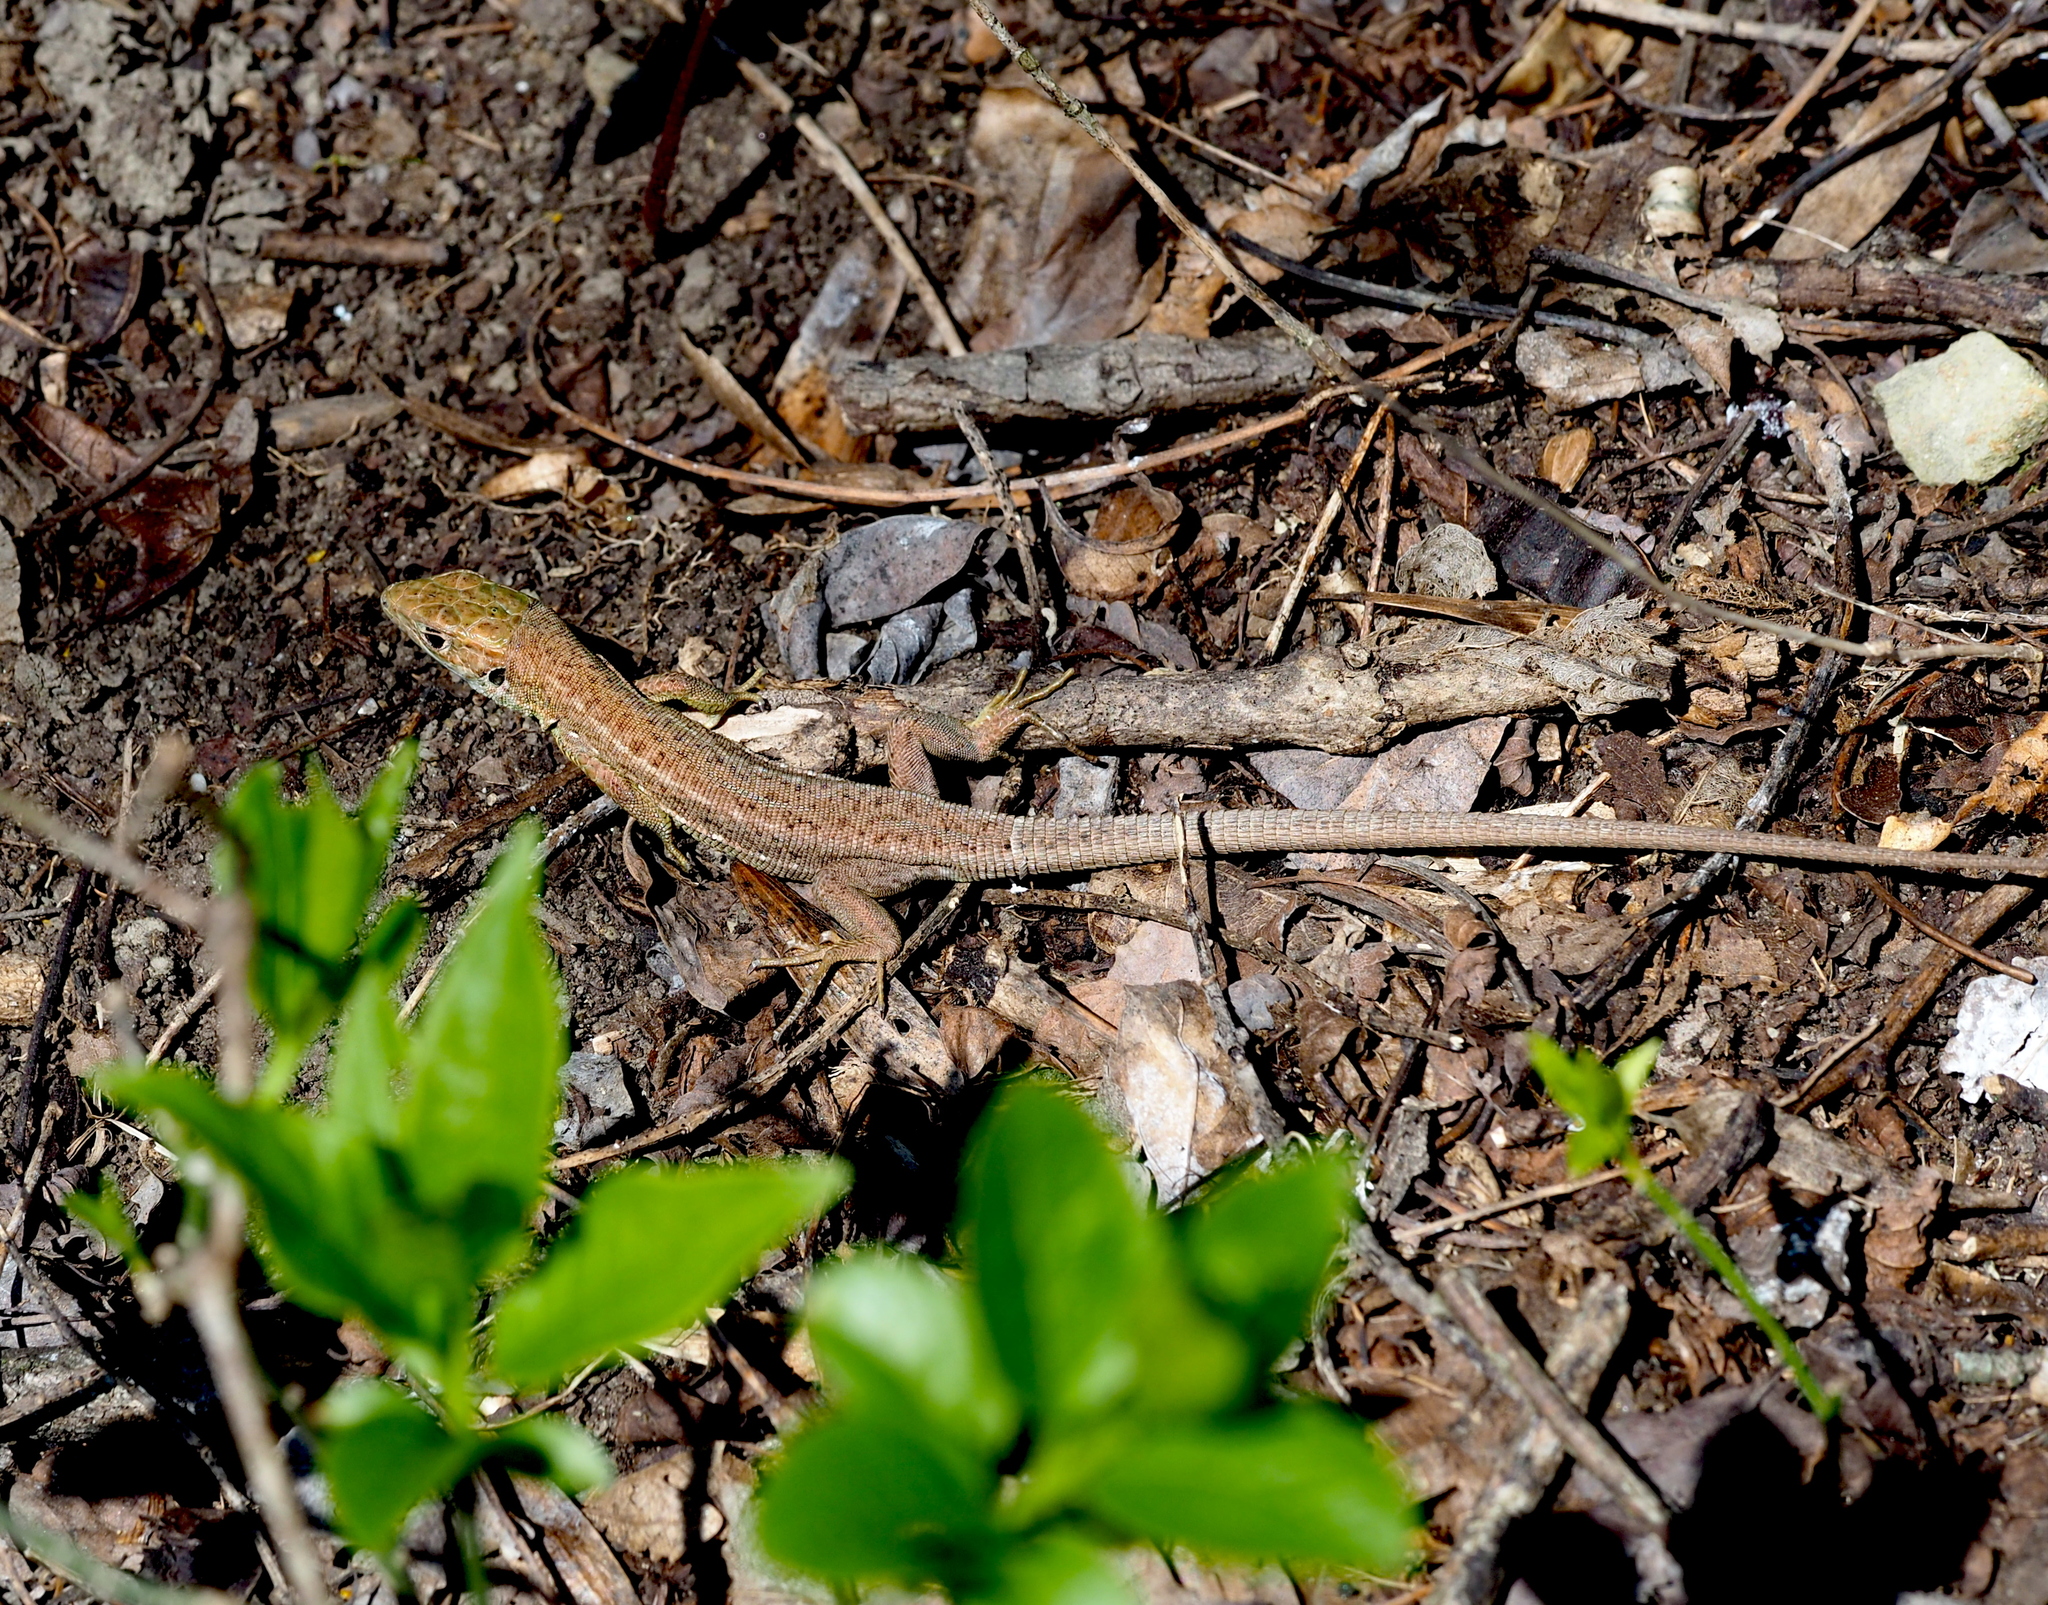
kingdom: Animalia
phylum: Chordata
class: Squamata
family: Lacertidae
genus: Lacerta
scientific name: Lacerta viridis
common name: European green lizard
